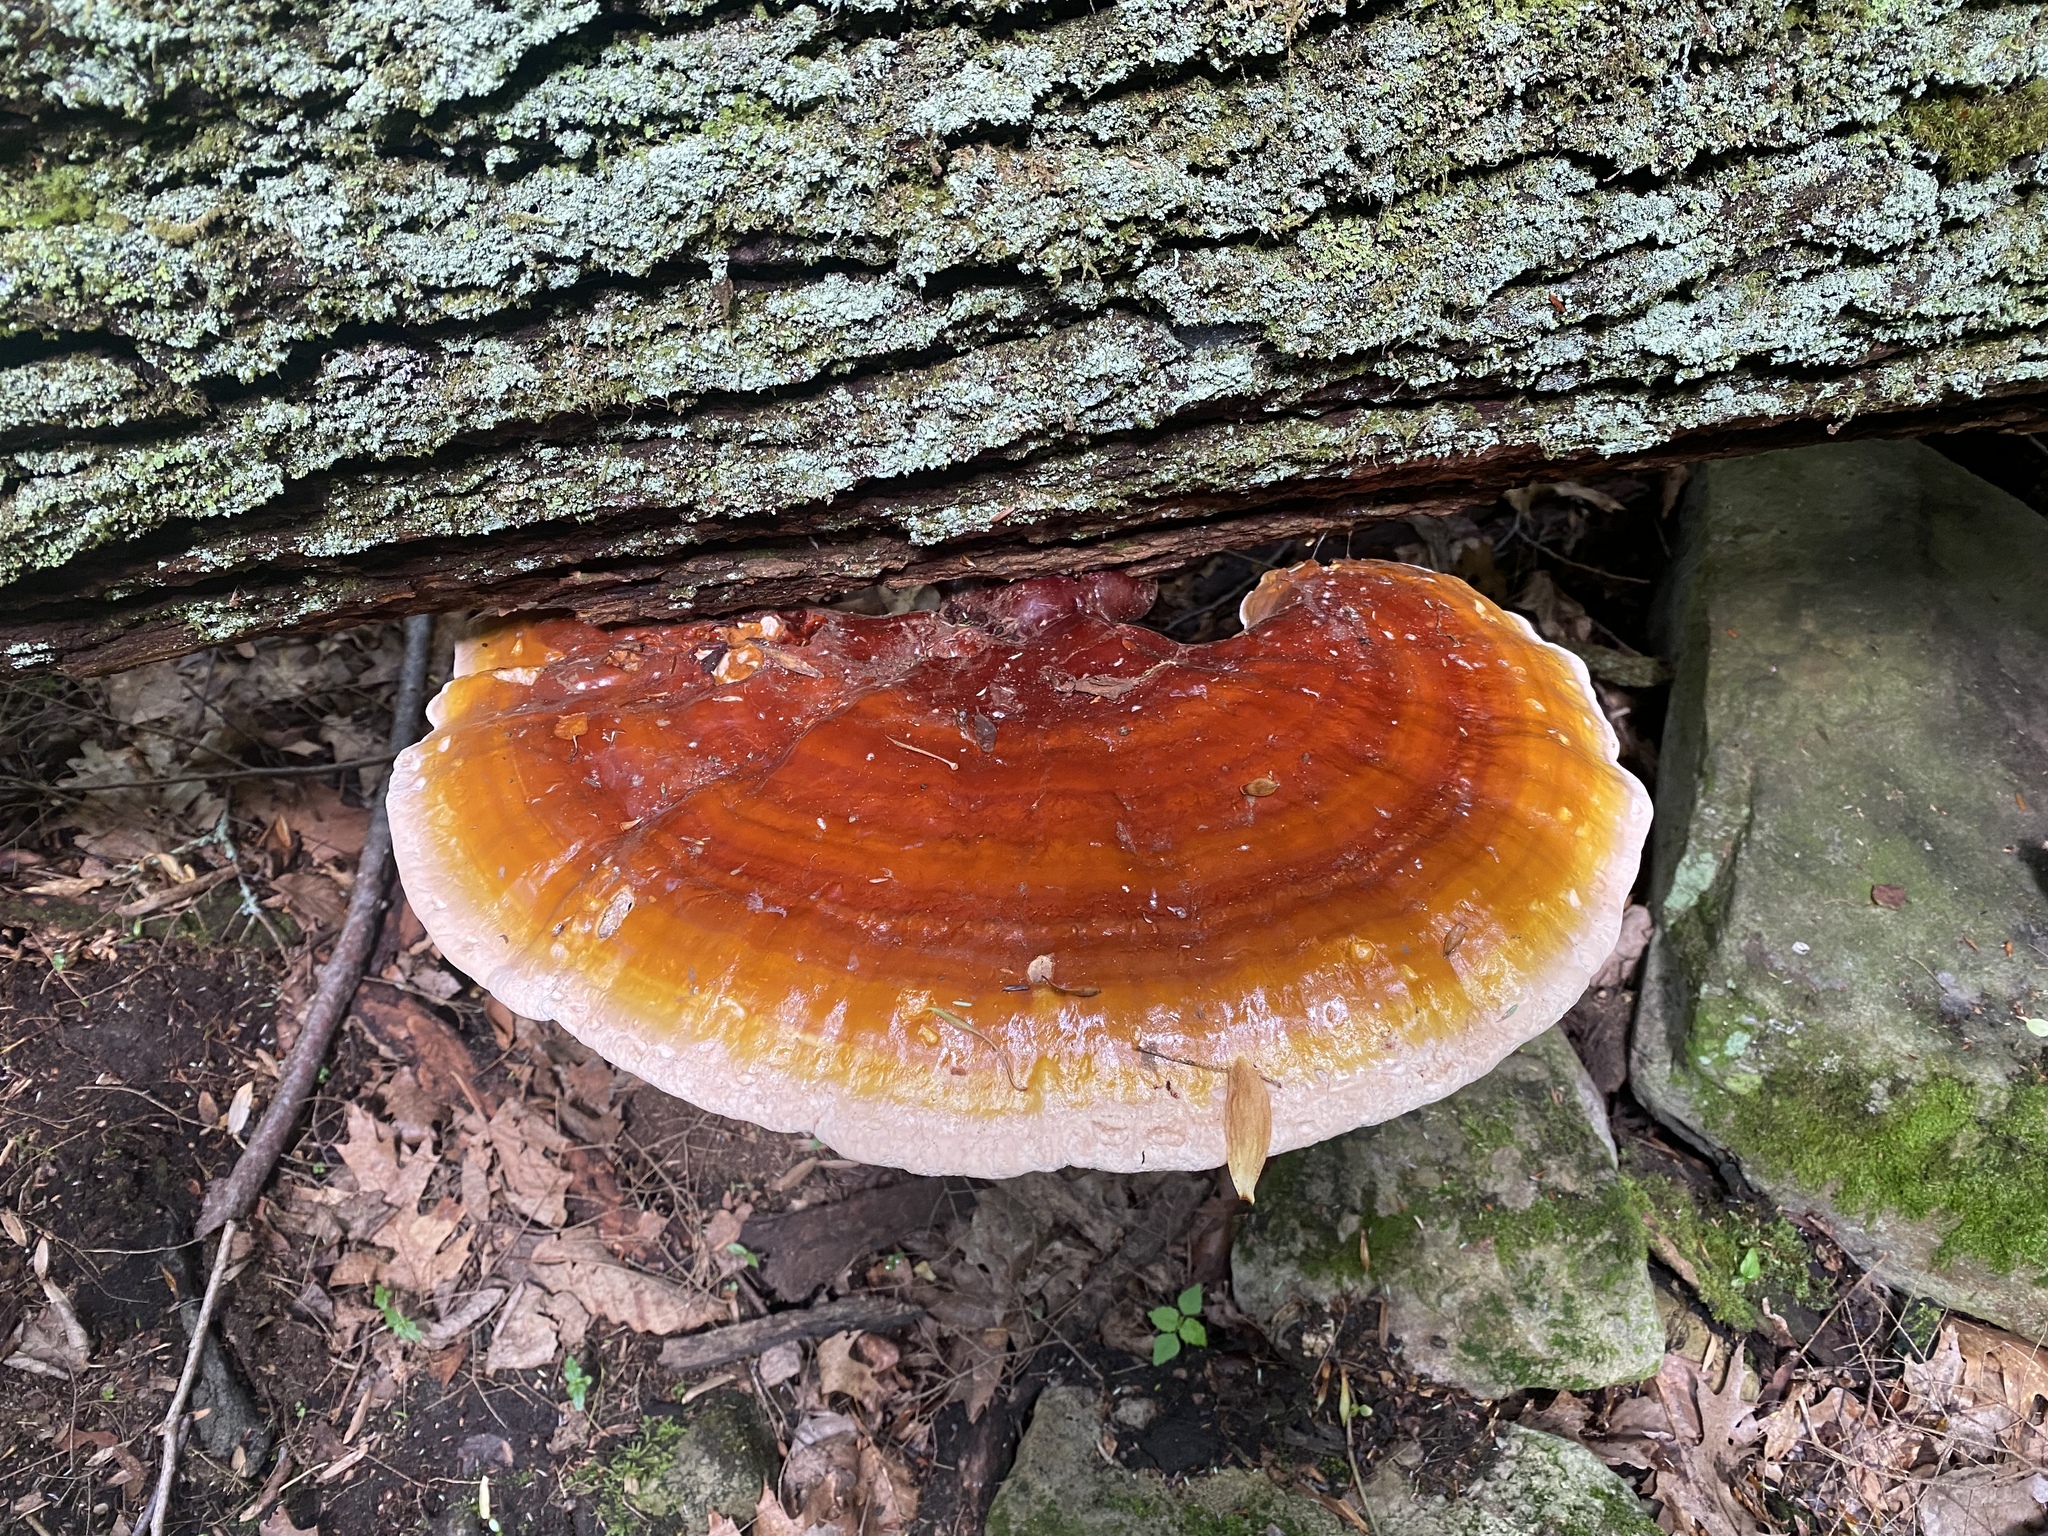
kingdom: Fungi
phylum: Basidiomycota
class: Agaricomycetes
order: Polyporales
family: Polyporaceae
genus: Ganoderma
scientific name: Ganoderma tsugae
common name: Hemlock varnish shelf
